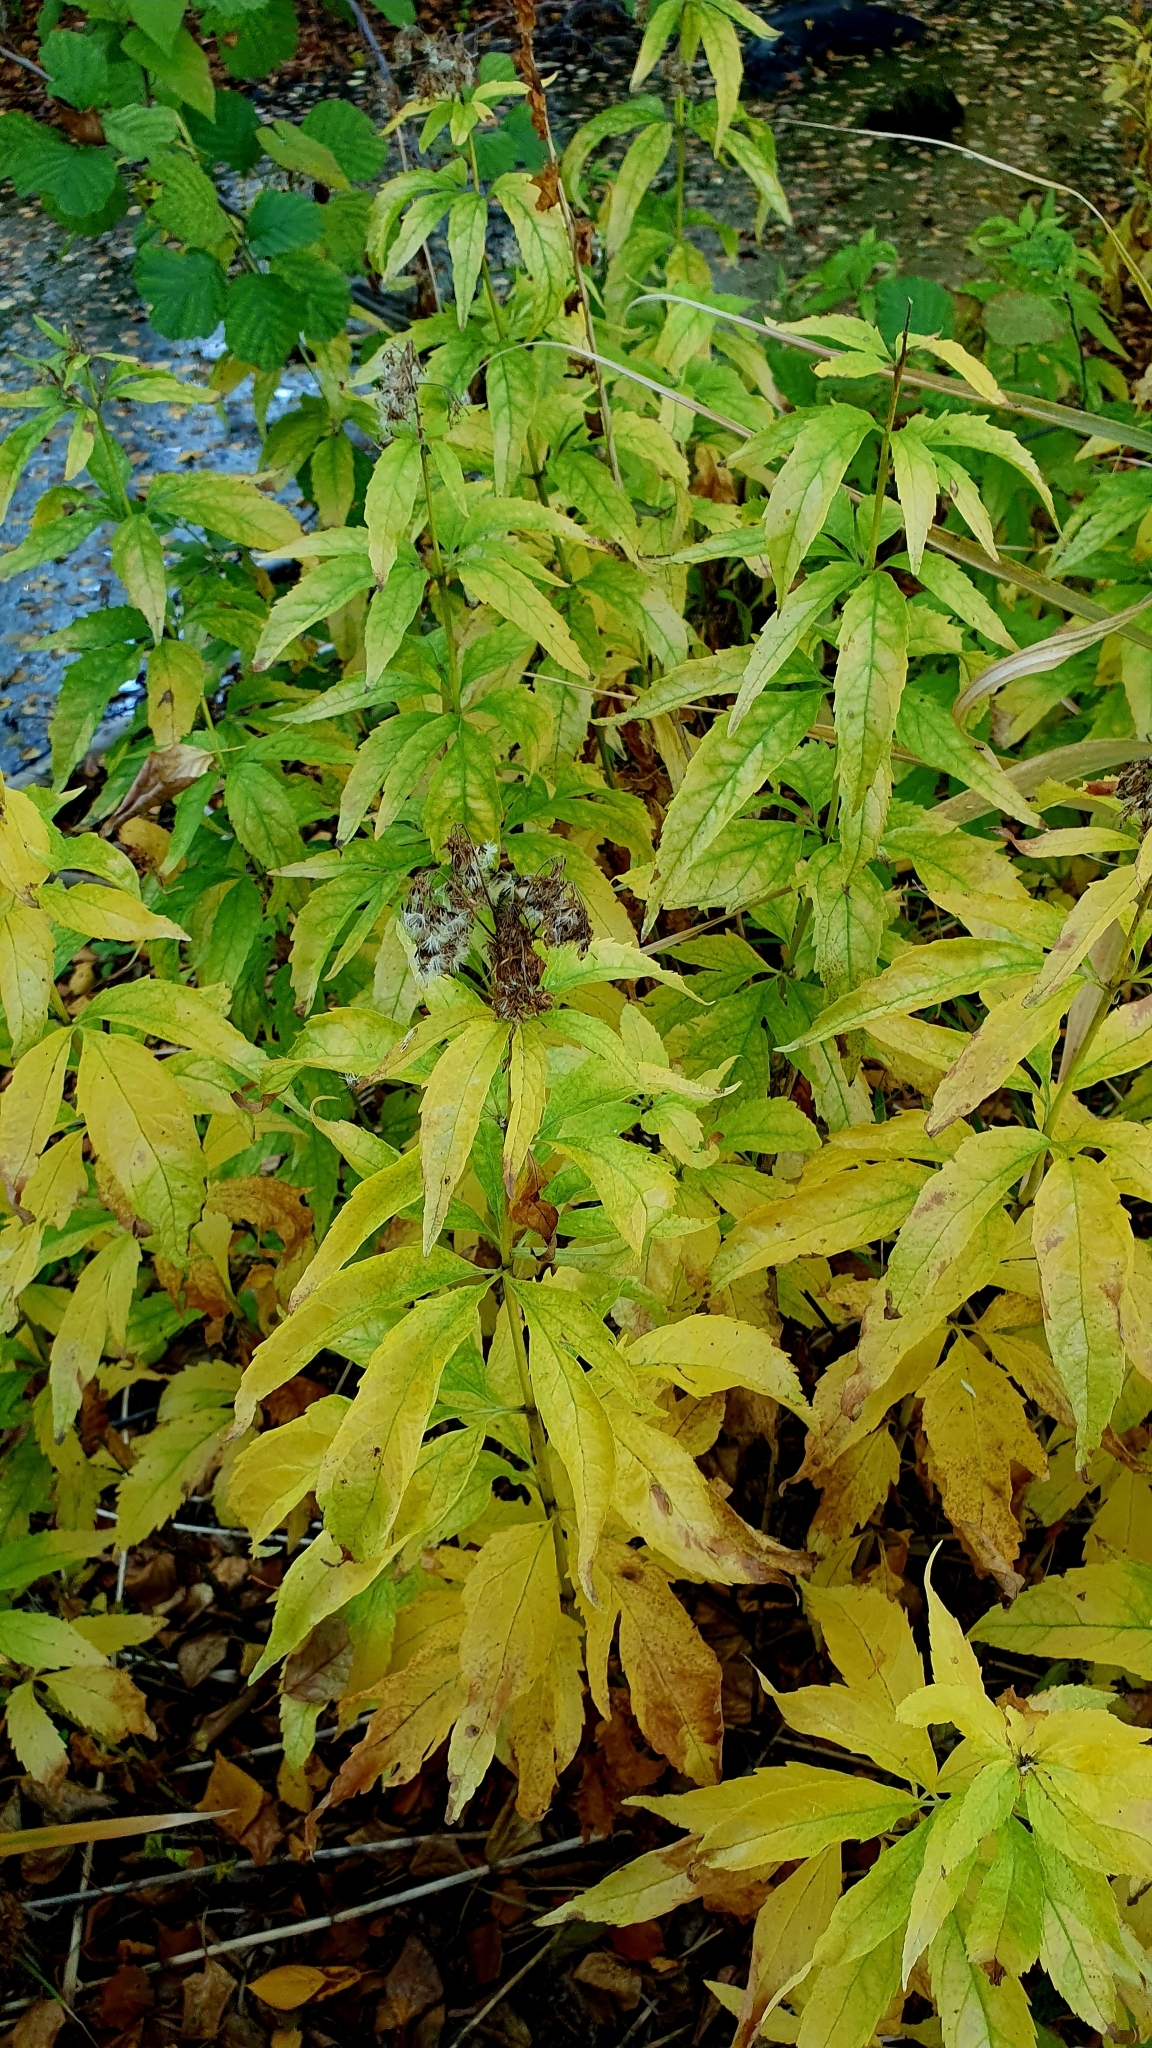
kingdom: Plantae
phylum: Tracheophyta
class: Magnoliopsida
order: Asterales
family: Asteraceae
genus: Eupatorium
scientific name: Eupatorium cannabinum
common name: Hemp-agrimony
